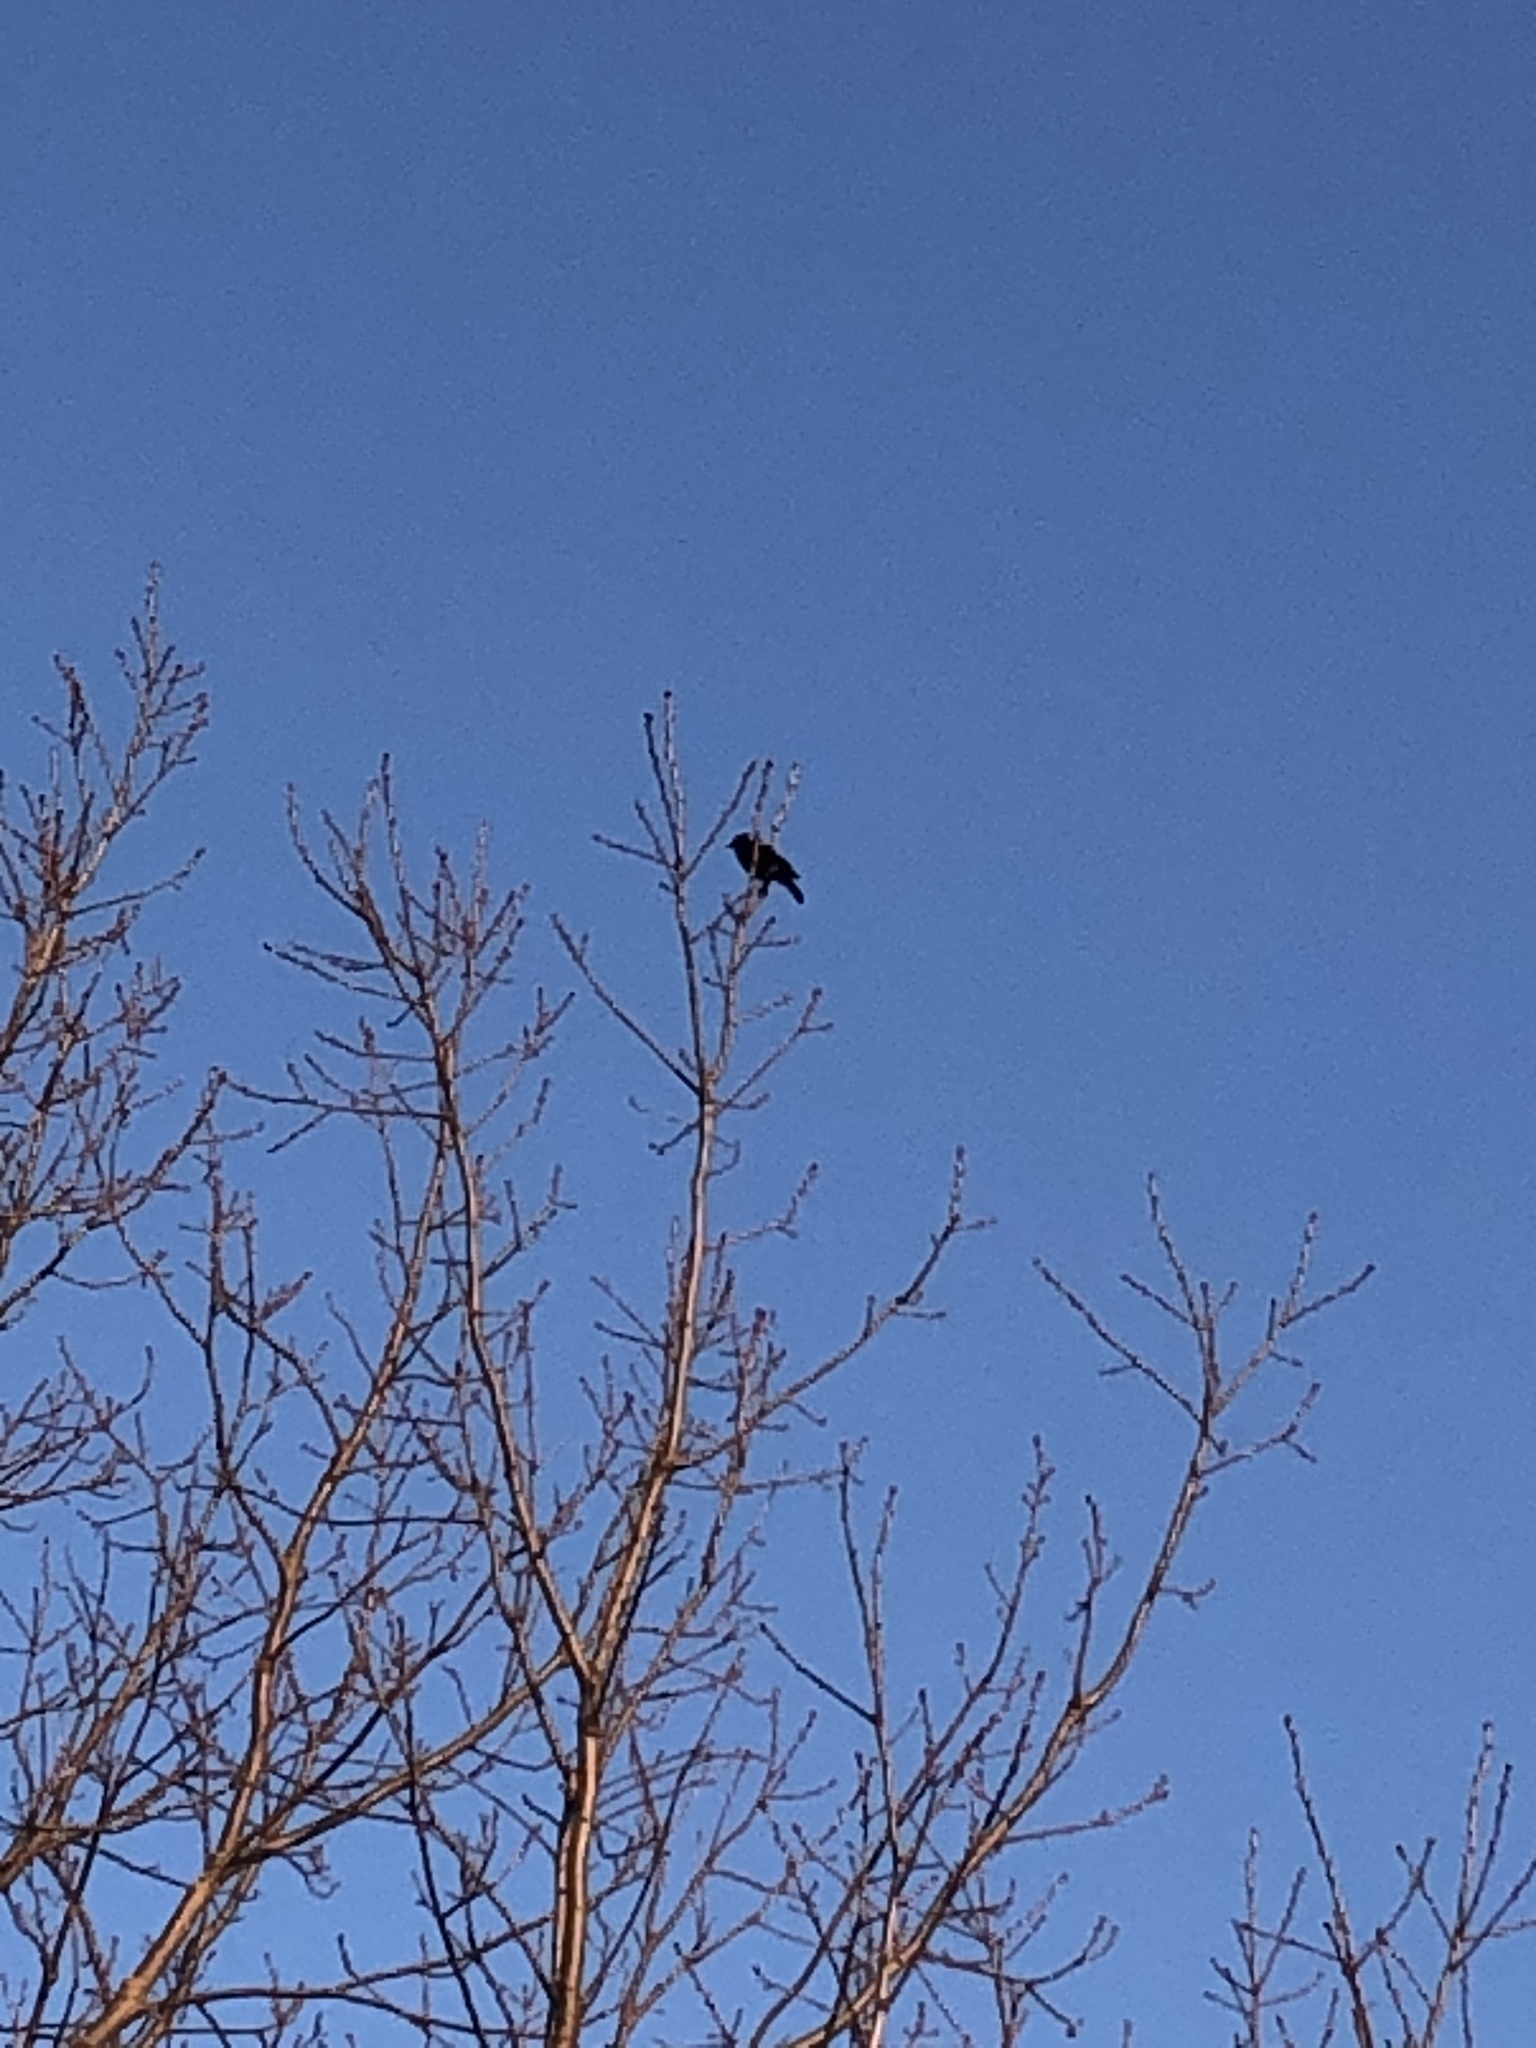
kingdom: Animalia
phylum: Chordata
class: Aves
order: Passeriformes
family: Icteridae
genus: Agelaius
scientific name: Agelaius phoeniceus
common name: Red-winged blackbird
